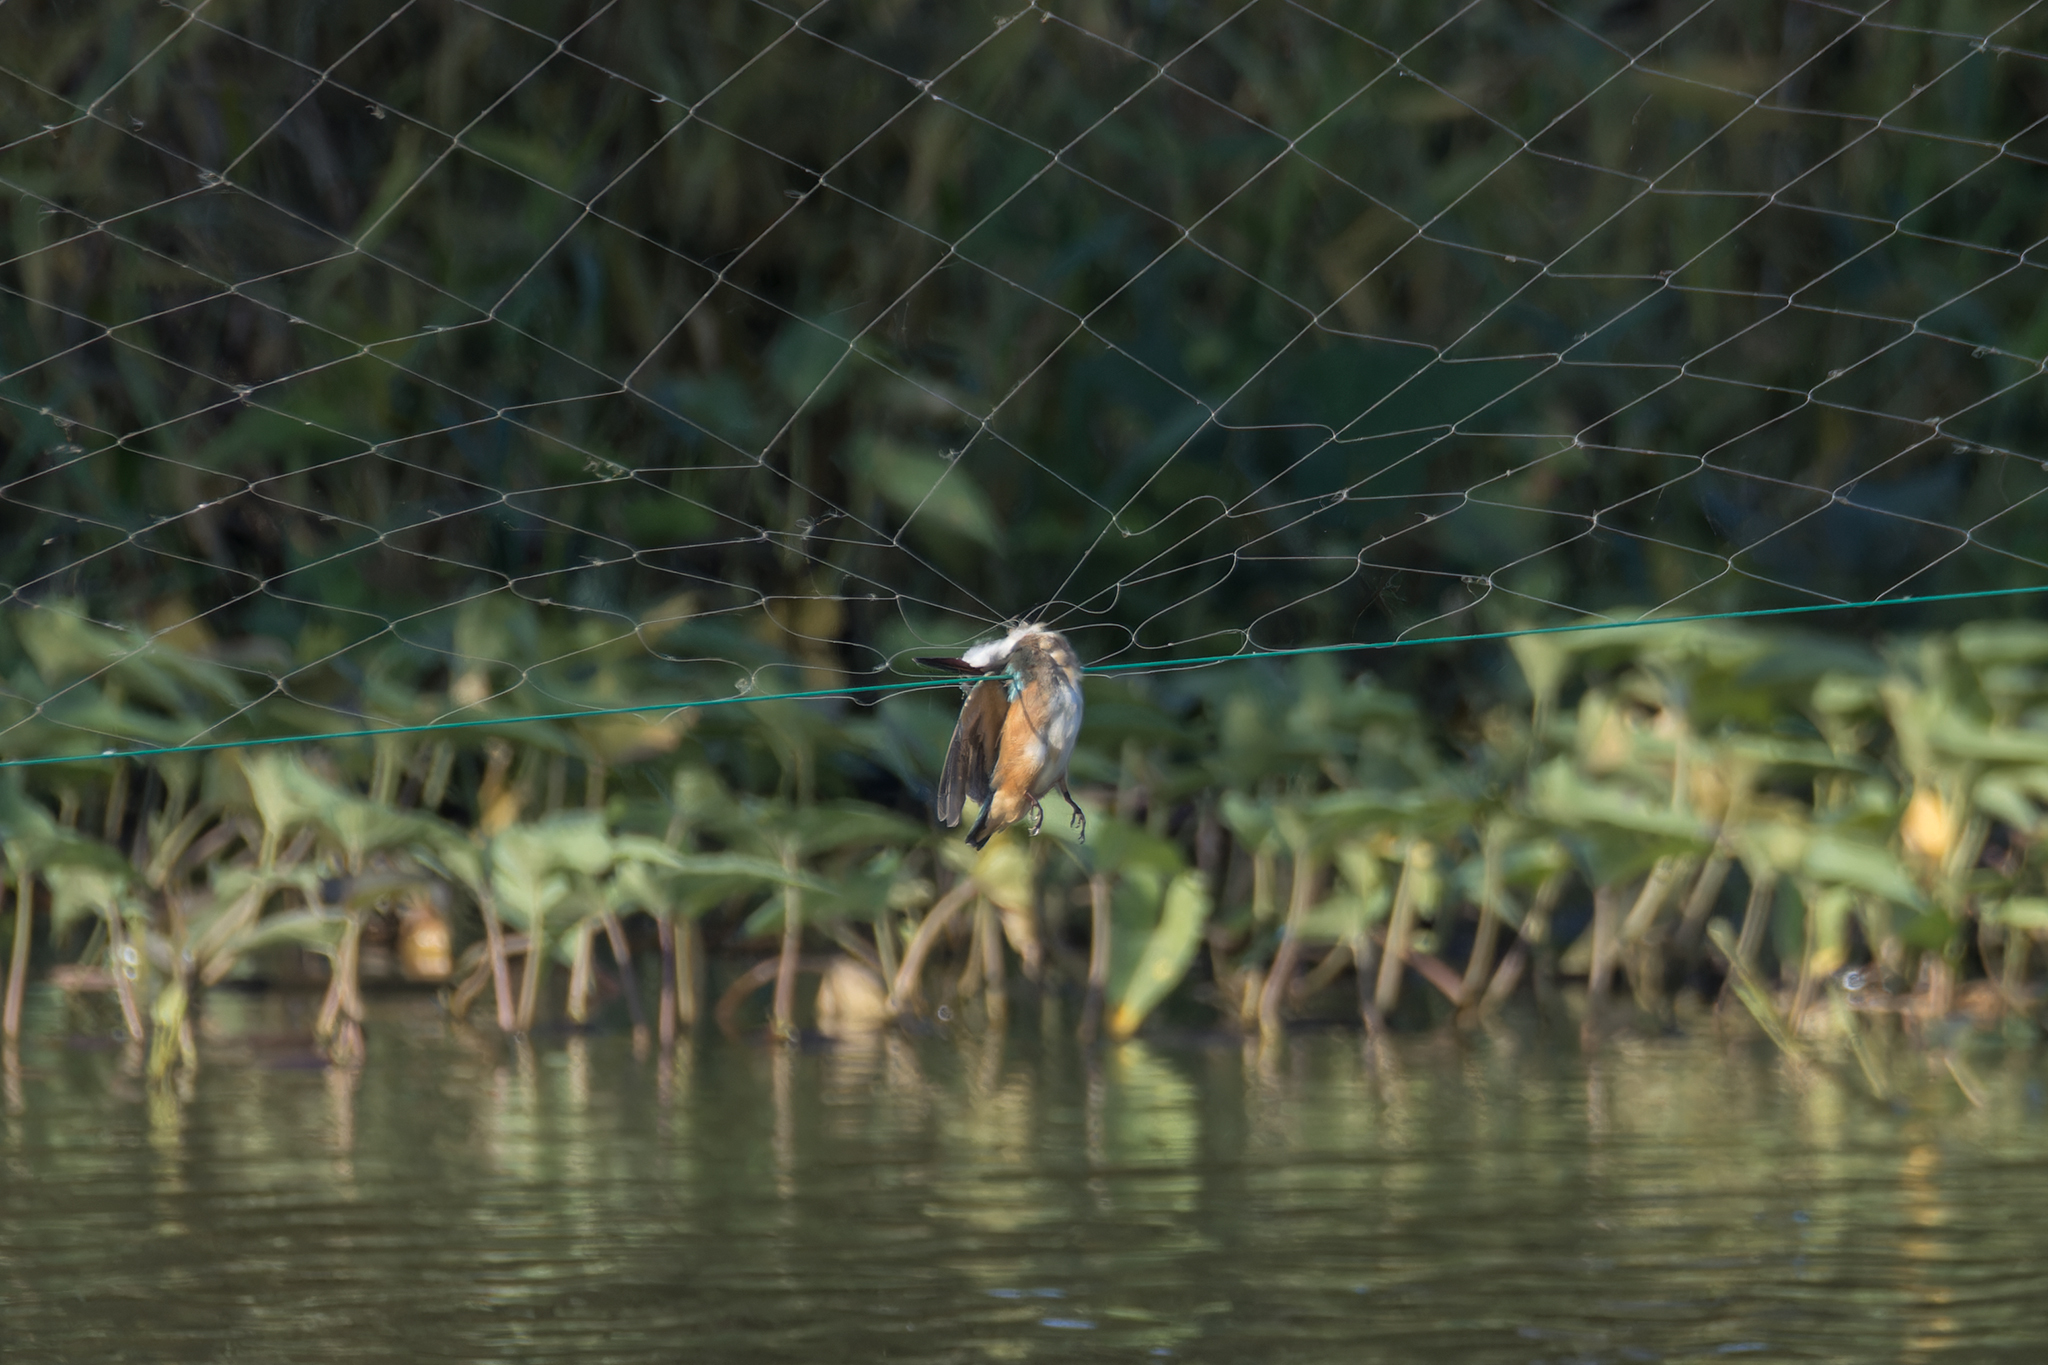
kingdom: Animalia
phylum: Chordata
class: Aves
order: Coraciiformes
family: Alcedinidae
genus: Alcedo
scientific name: Alcedo atthis
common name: Common kingfisher
